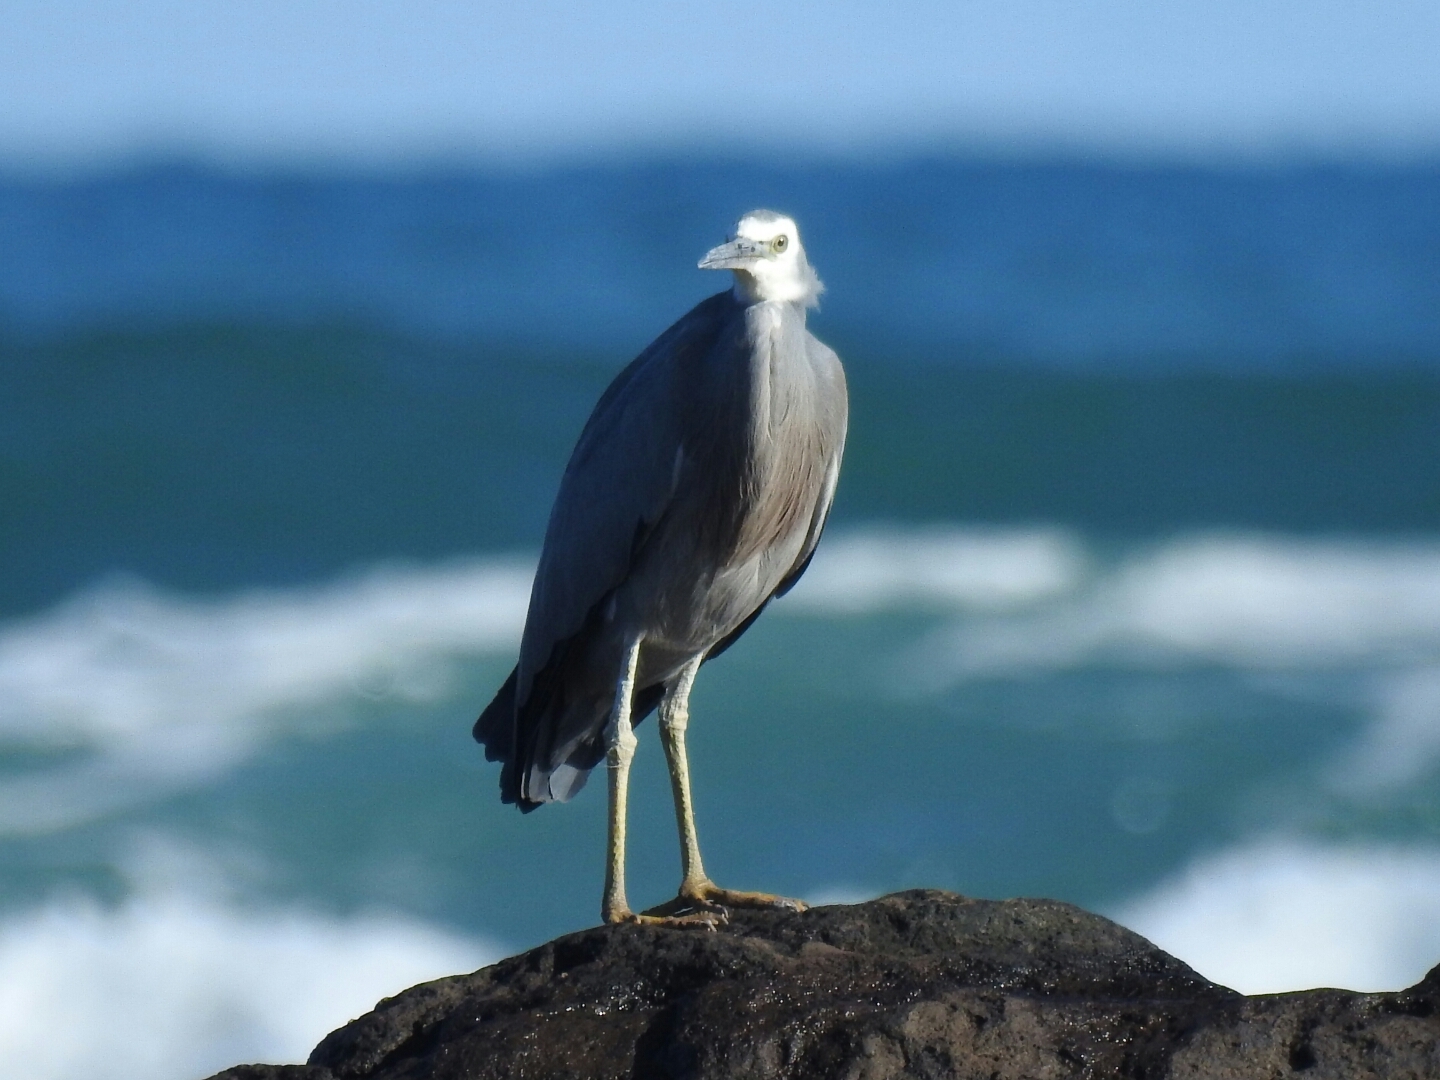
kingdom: Animalia
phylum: Chordata
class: Aves
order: Pelecaniformes
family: Ardeidae
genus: Egretta
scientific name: Egretta novaehollandiae
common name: White-faced heron
